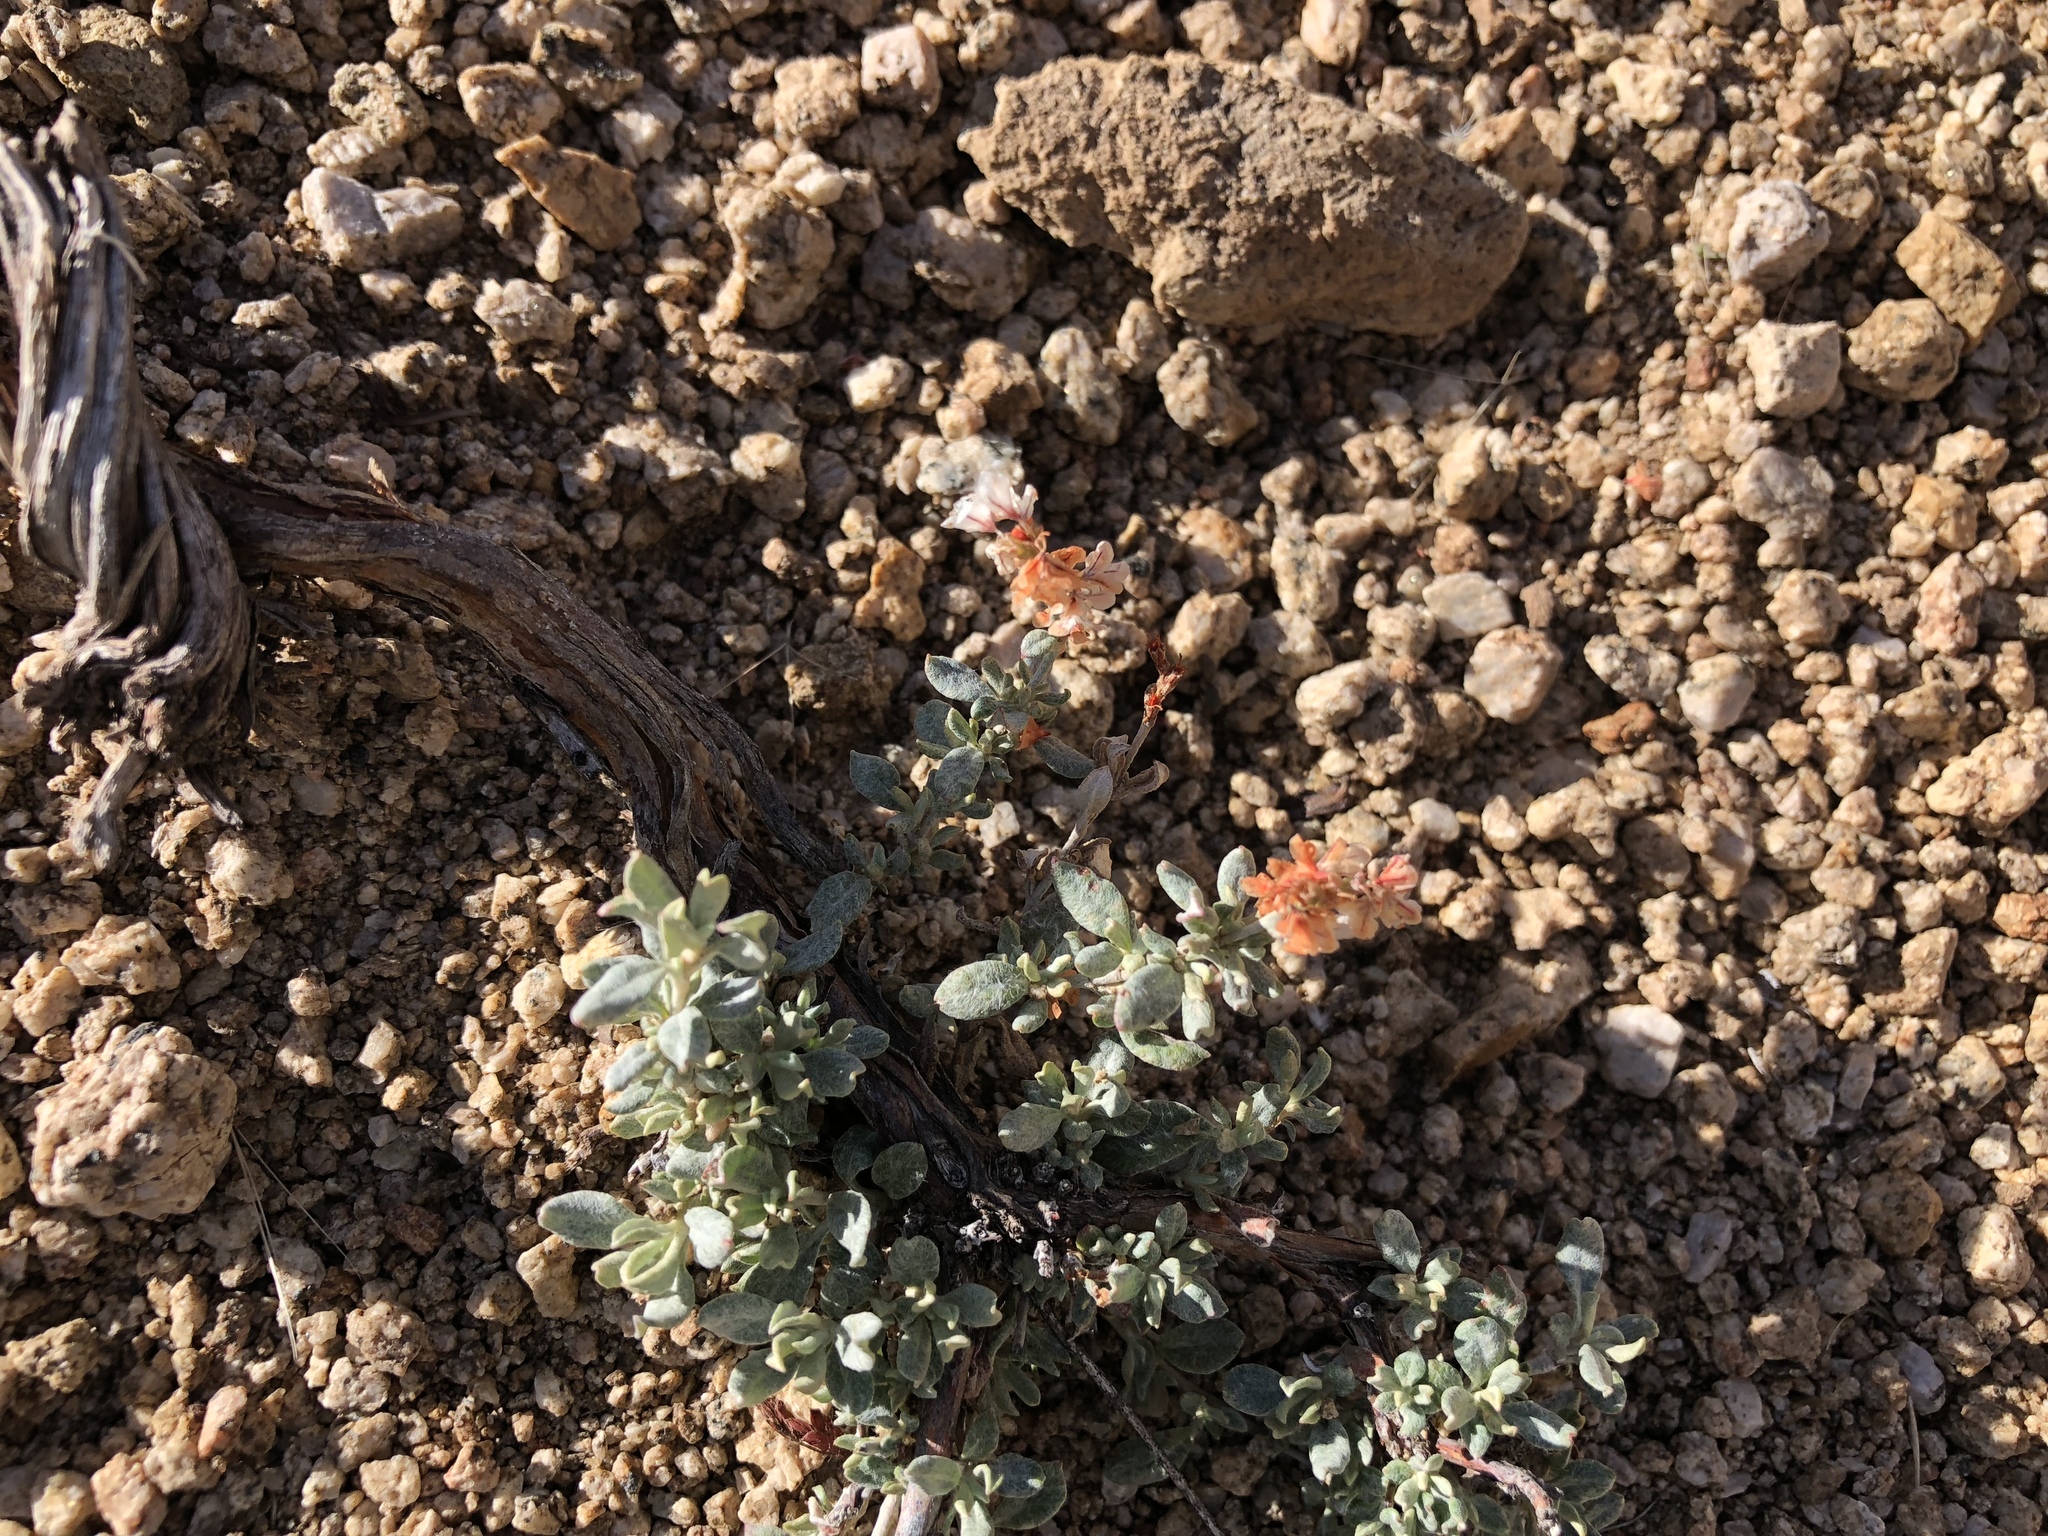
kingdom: Plantae
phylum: Tracheophyta
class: Magnoliopsida
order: Caryophyllales
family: Polygonaceae
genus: Eriogonum
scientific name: Eriogonum wrightii
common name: Bastard-sage
